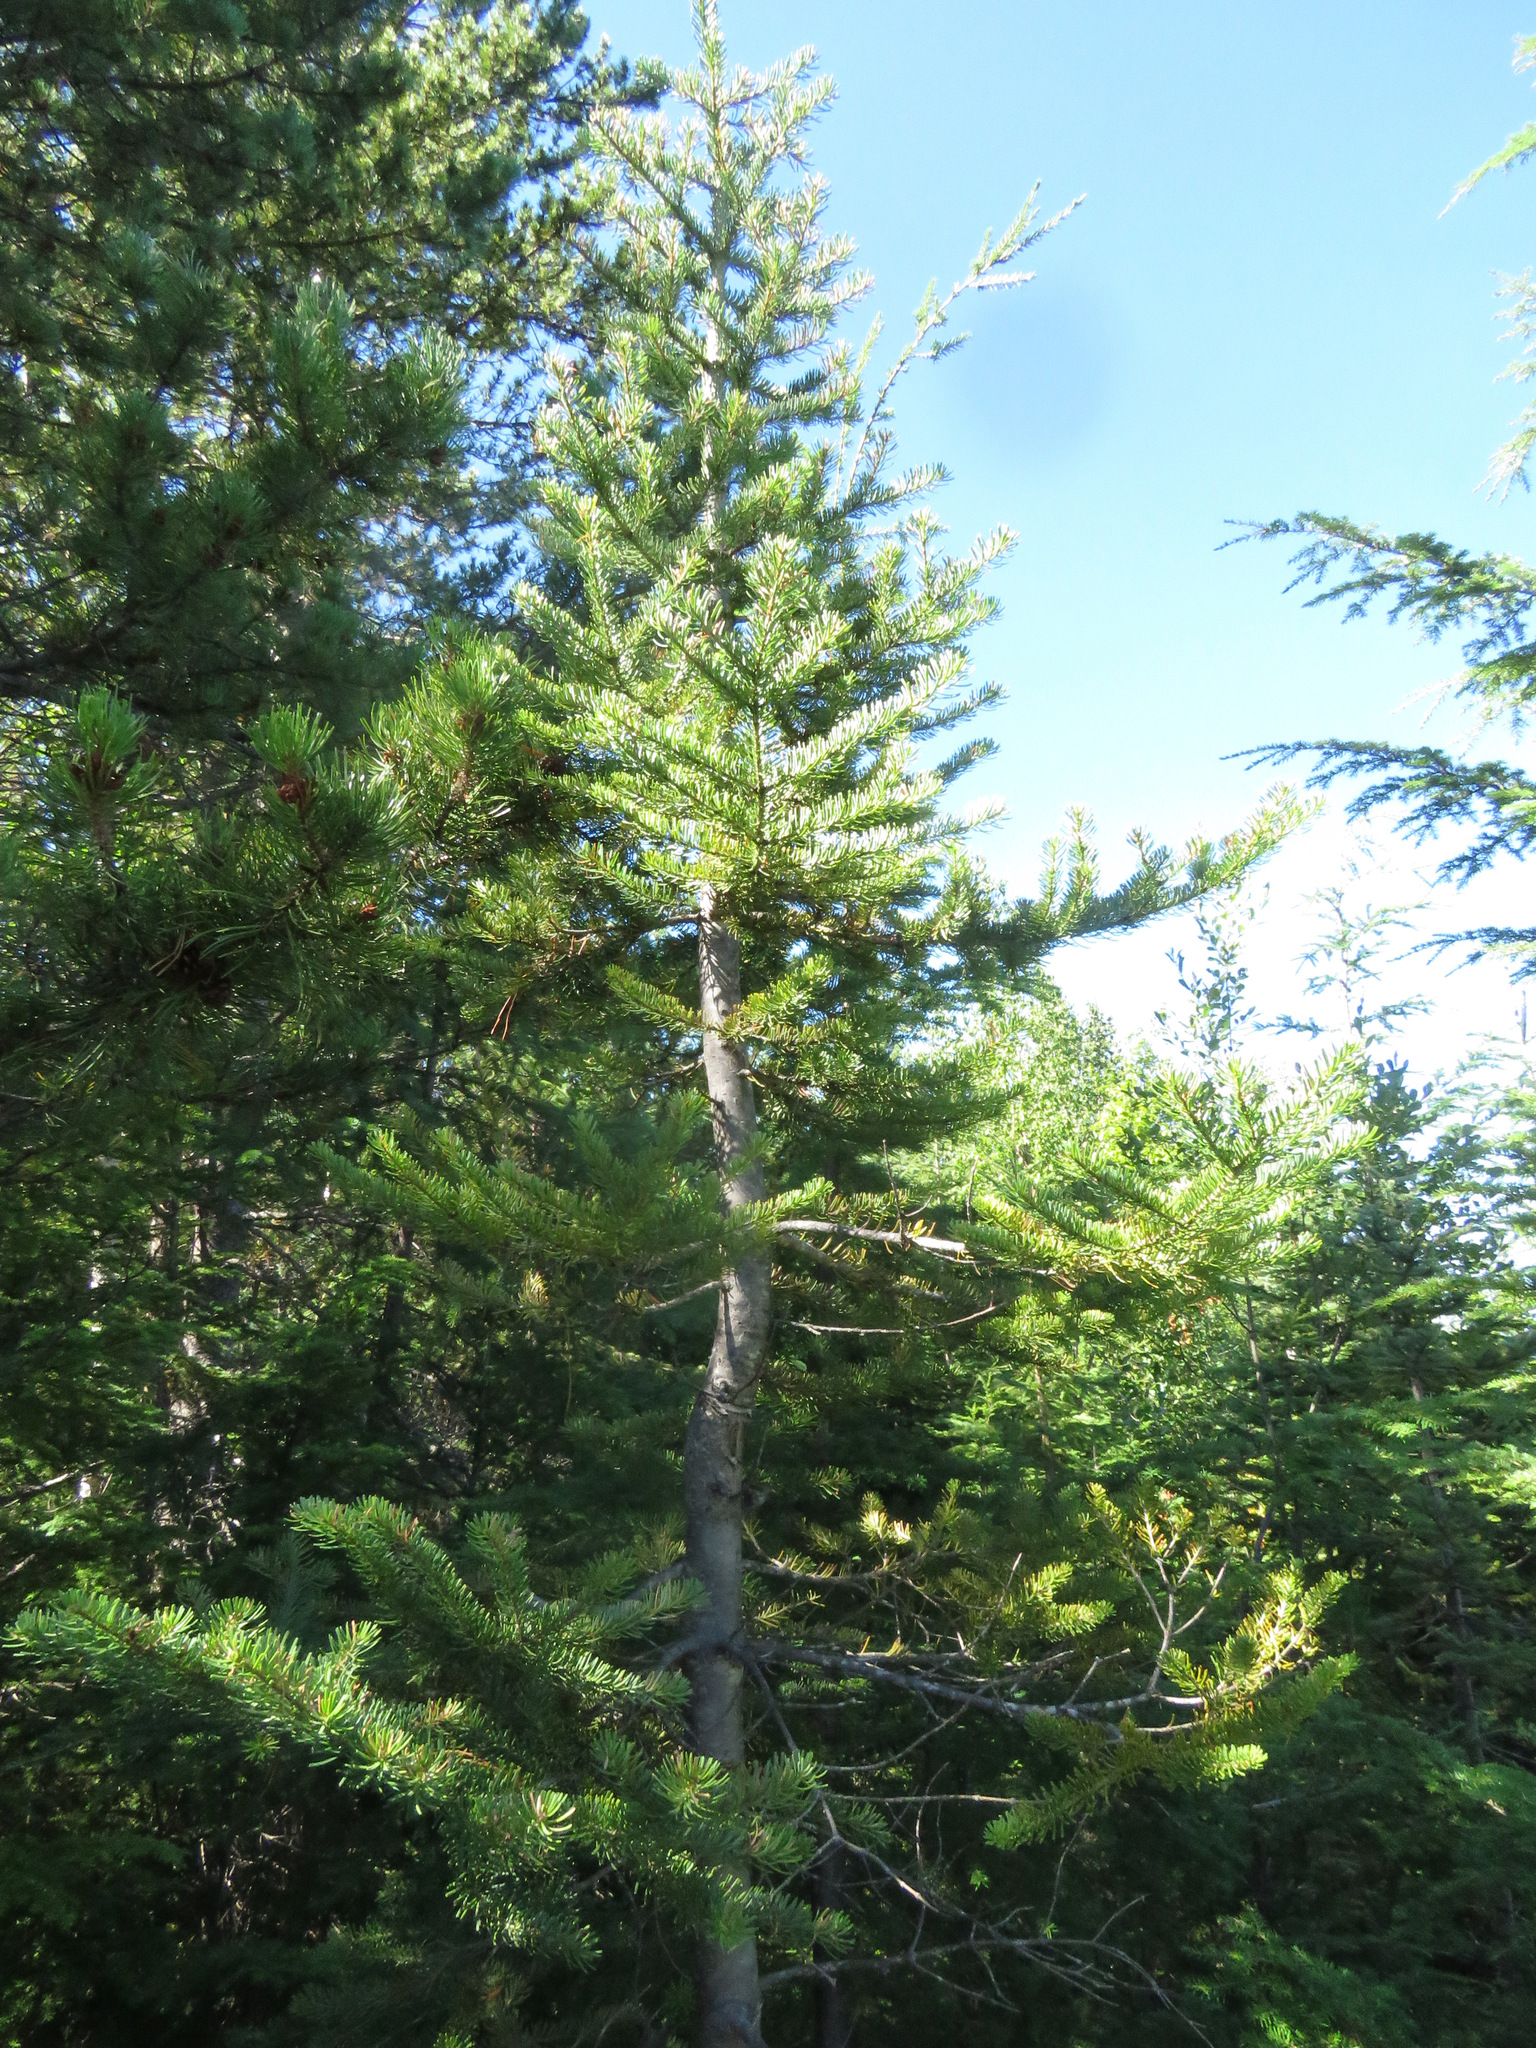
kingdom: Plantae
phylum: Tracheophyta
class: Pinopsida
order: Pinales
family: Pinaceae
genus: Abies
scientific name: Abies lasiocarpa
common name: Subalpine fir
